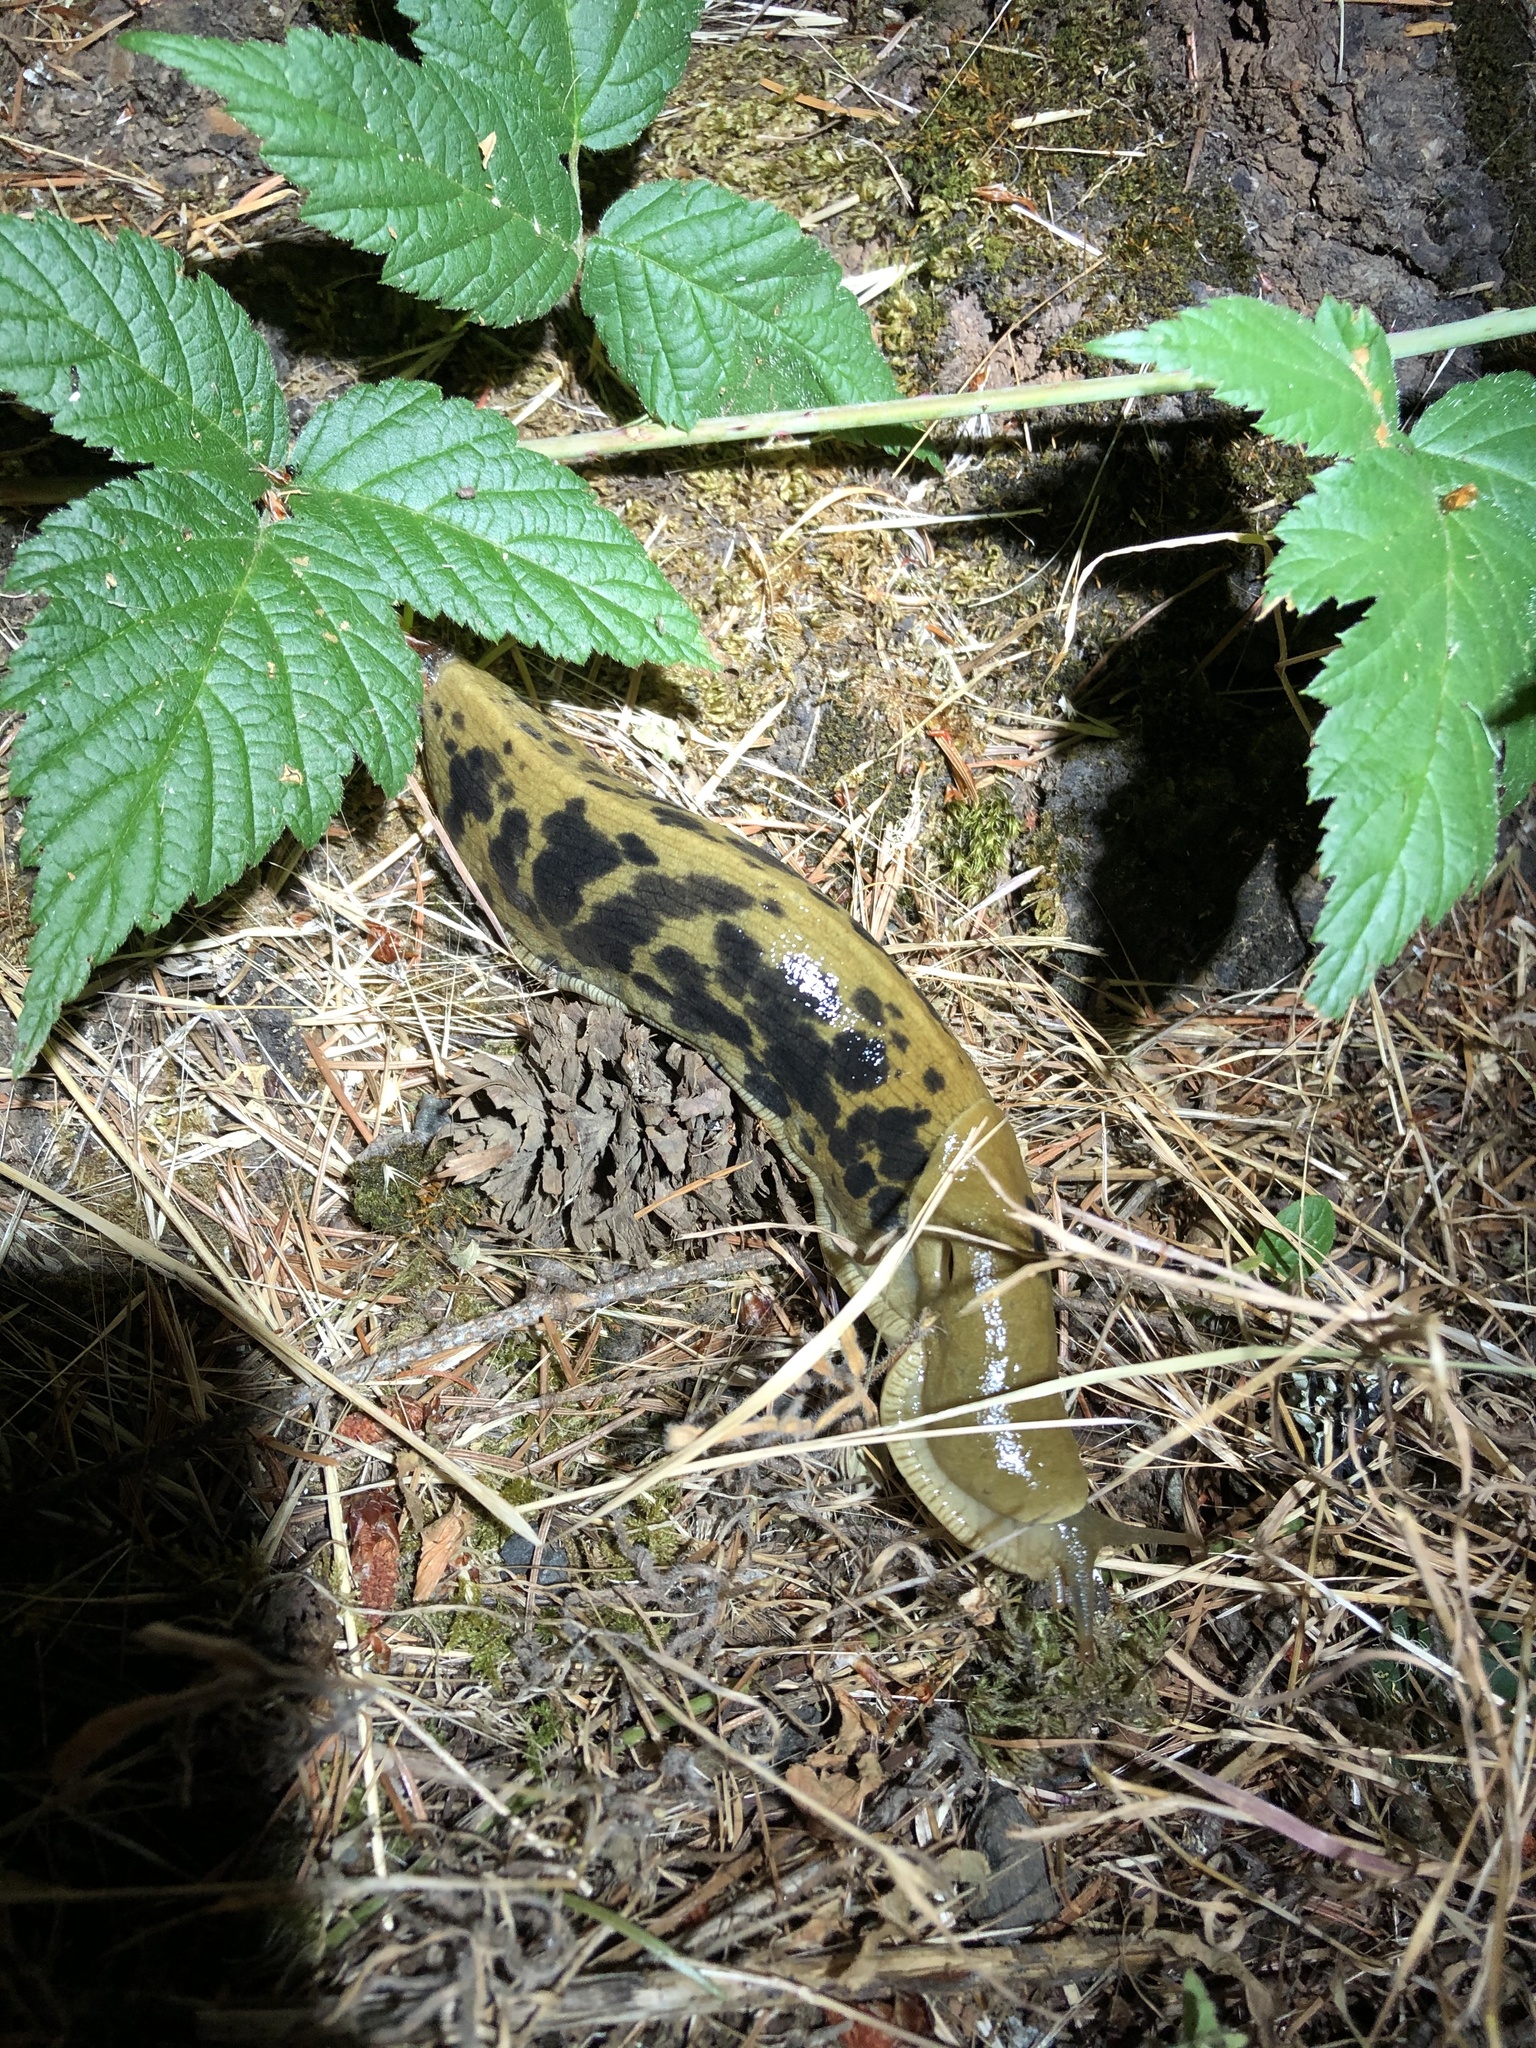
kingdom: Animalia
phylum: Mollusca
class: Gastropoda
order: Stylommatophora
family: Ariolimacidae
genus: Ariolimax
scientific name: Ariolimax columbianus
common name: Pacific banana slug
